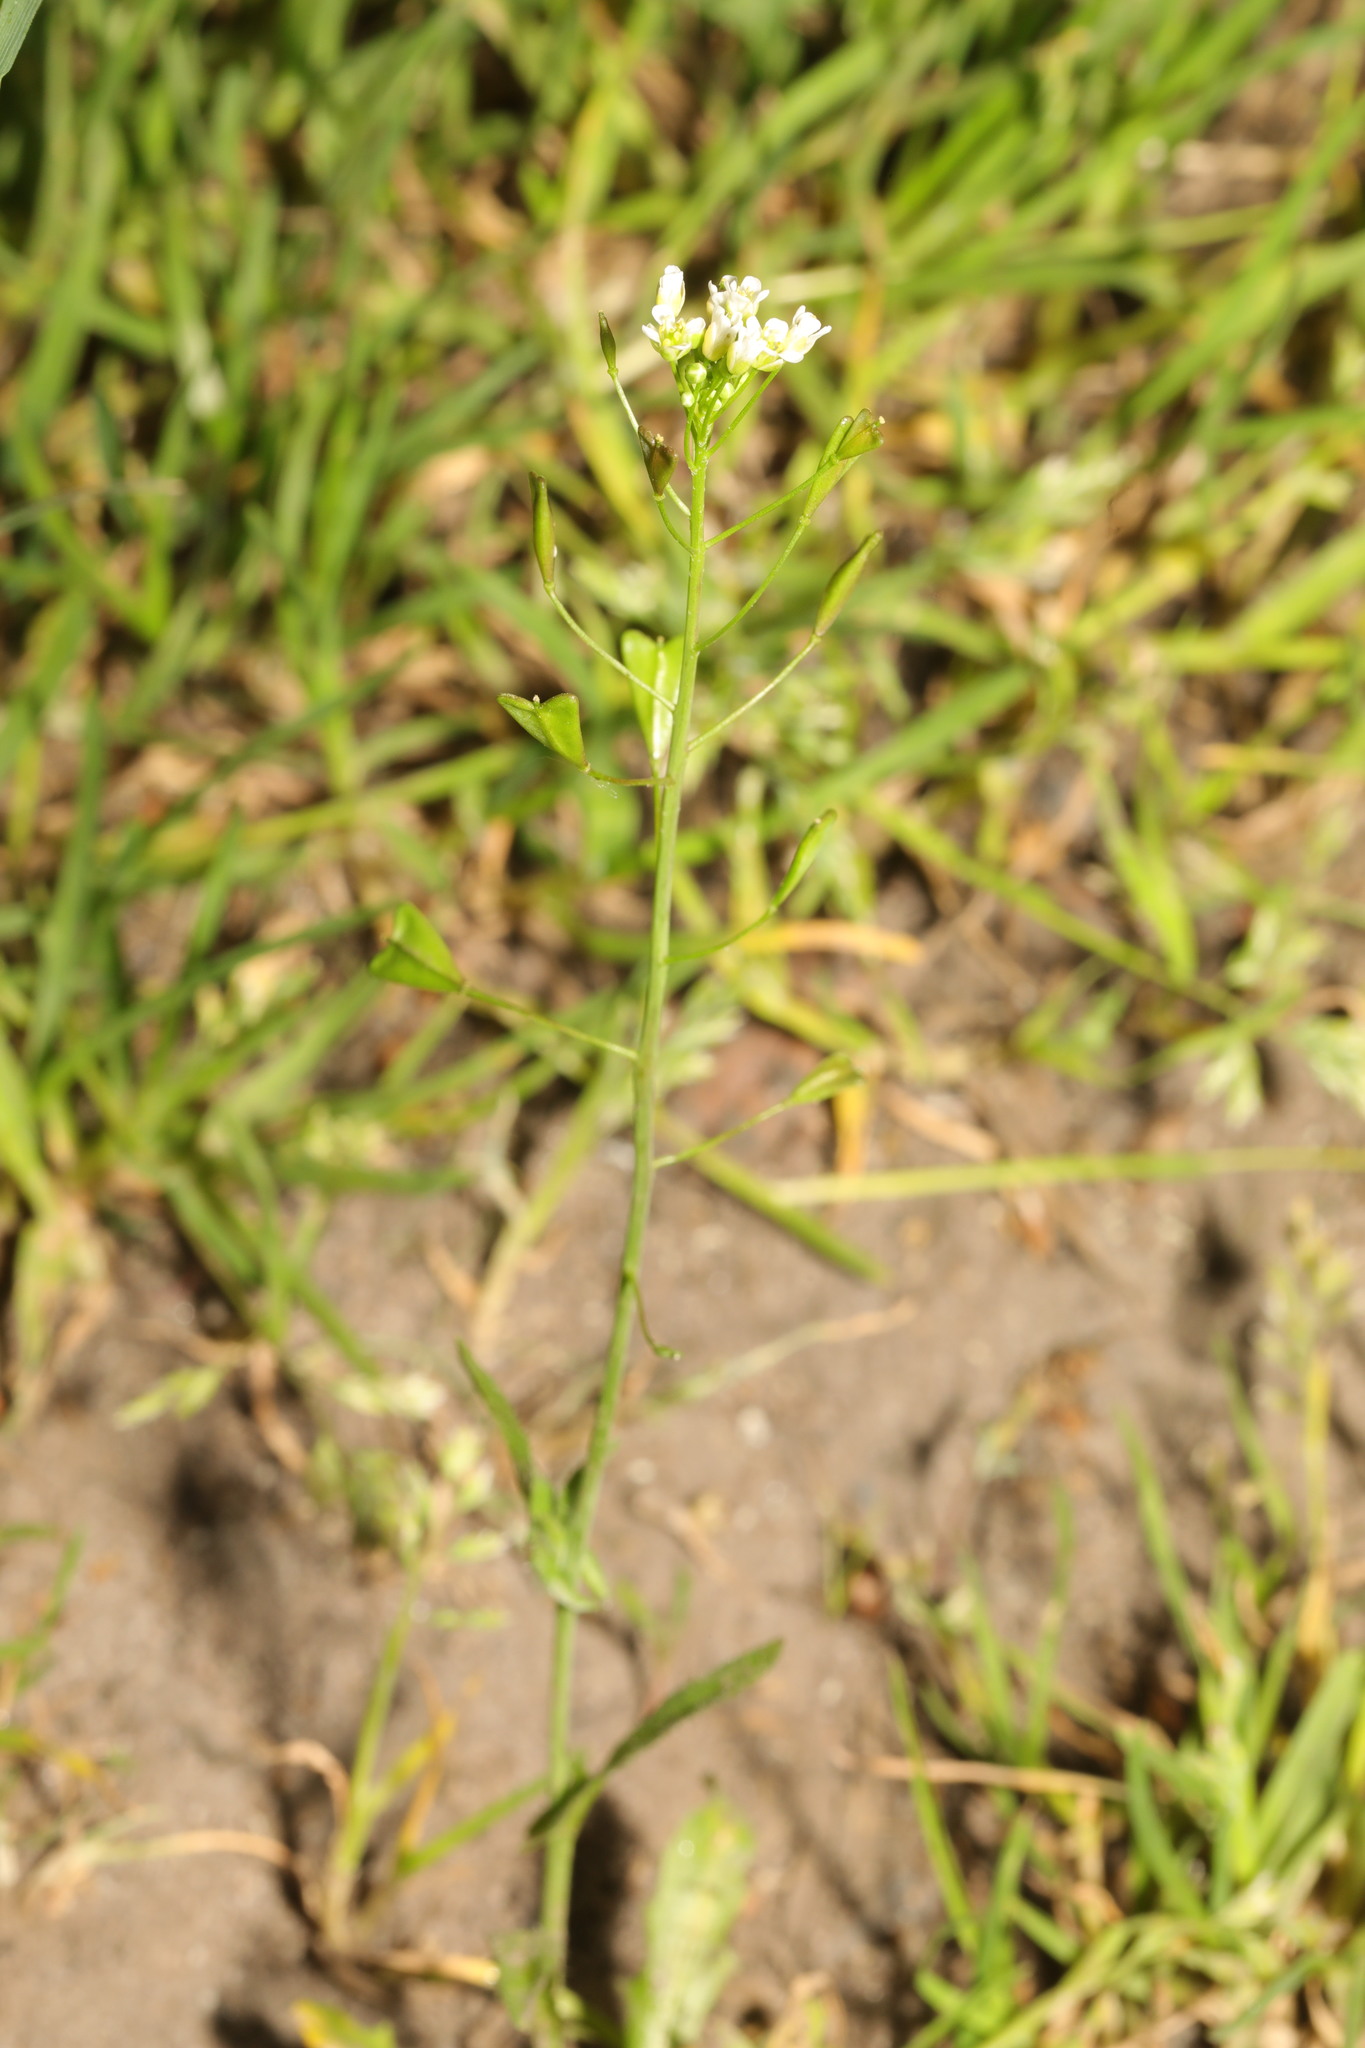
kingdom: Plantae
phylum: Tracheophyta
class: Magnoliopsida
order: Brassicales
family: Brassicaceae
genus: Capsella
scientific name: Capsella bursa-pastoris
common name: Shepherd's purse
